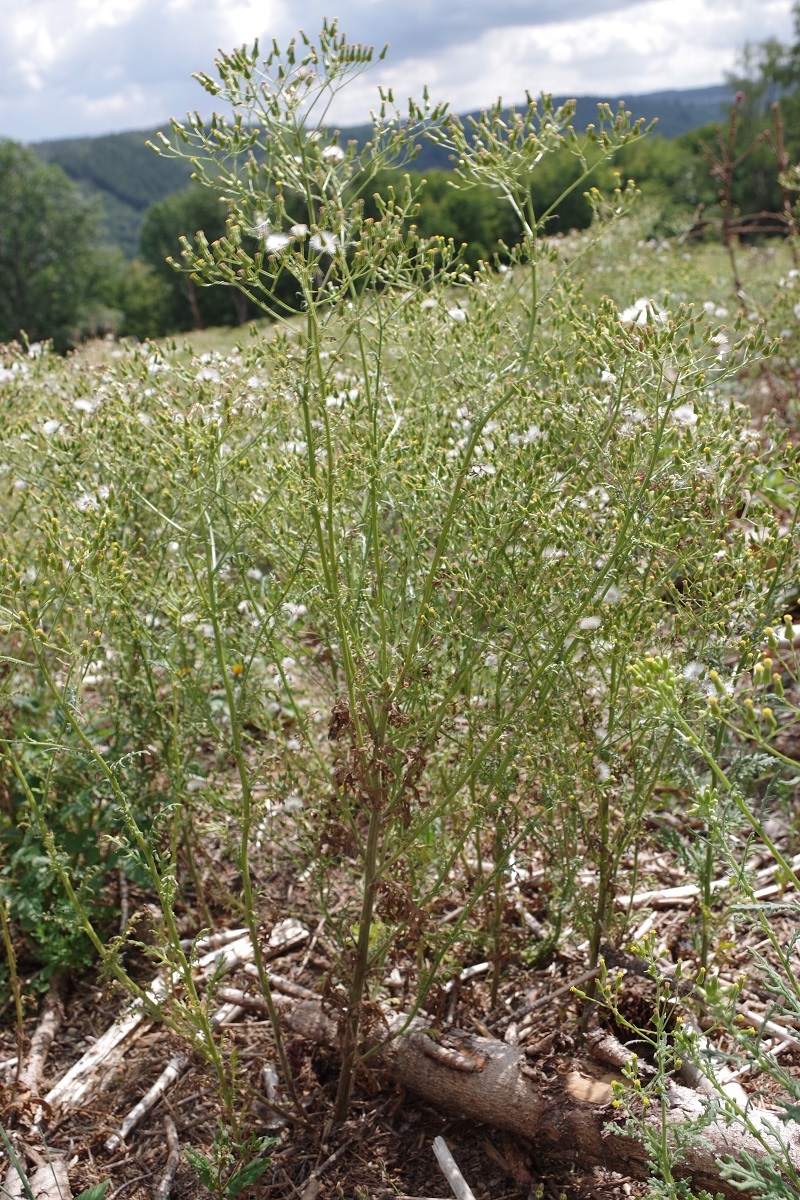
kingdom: Plantae
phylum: Tracheophyta
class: Magnoliopsida
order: Asterales
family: Asteraceae
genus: Senecio
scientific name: Senecio sylvaticus
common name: Woodland ragwort
